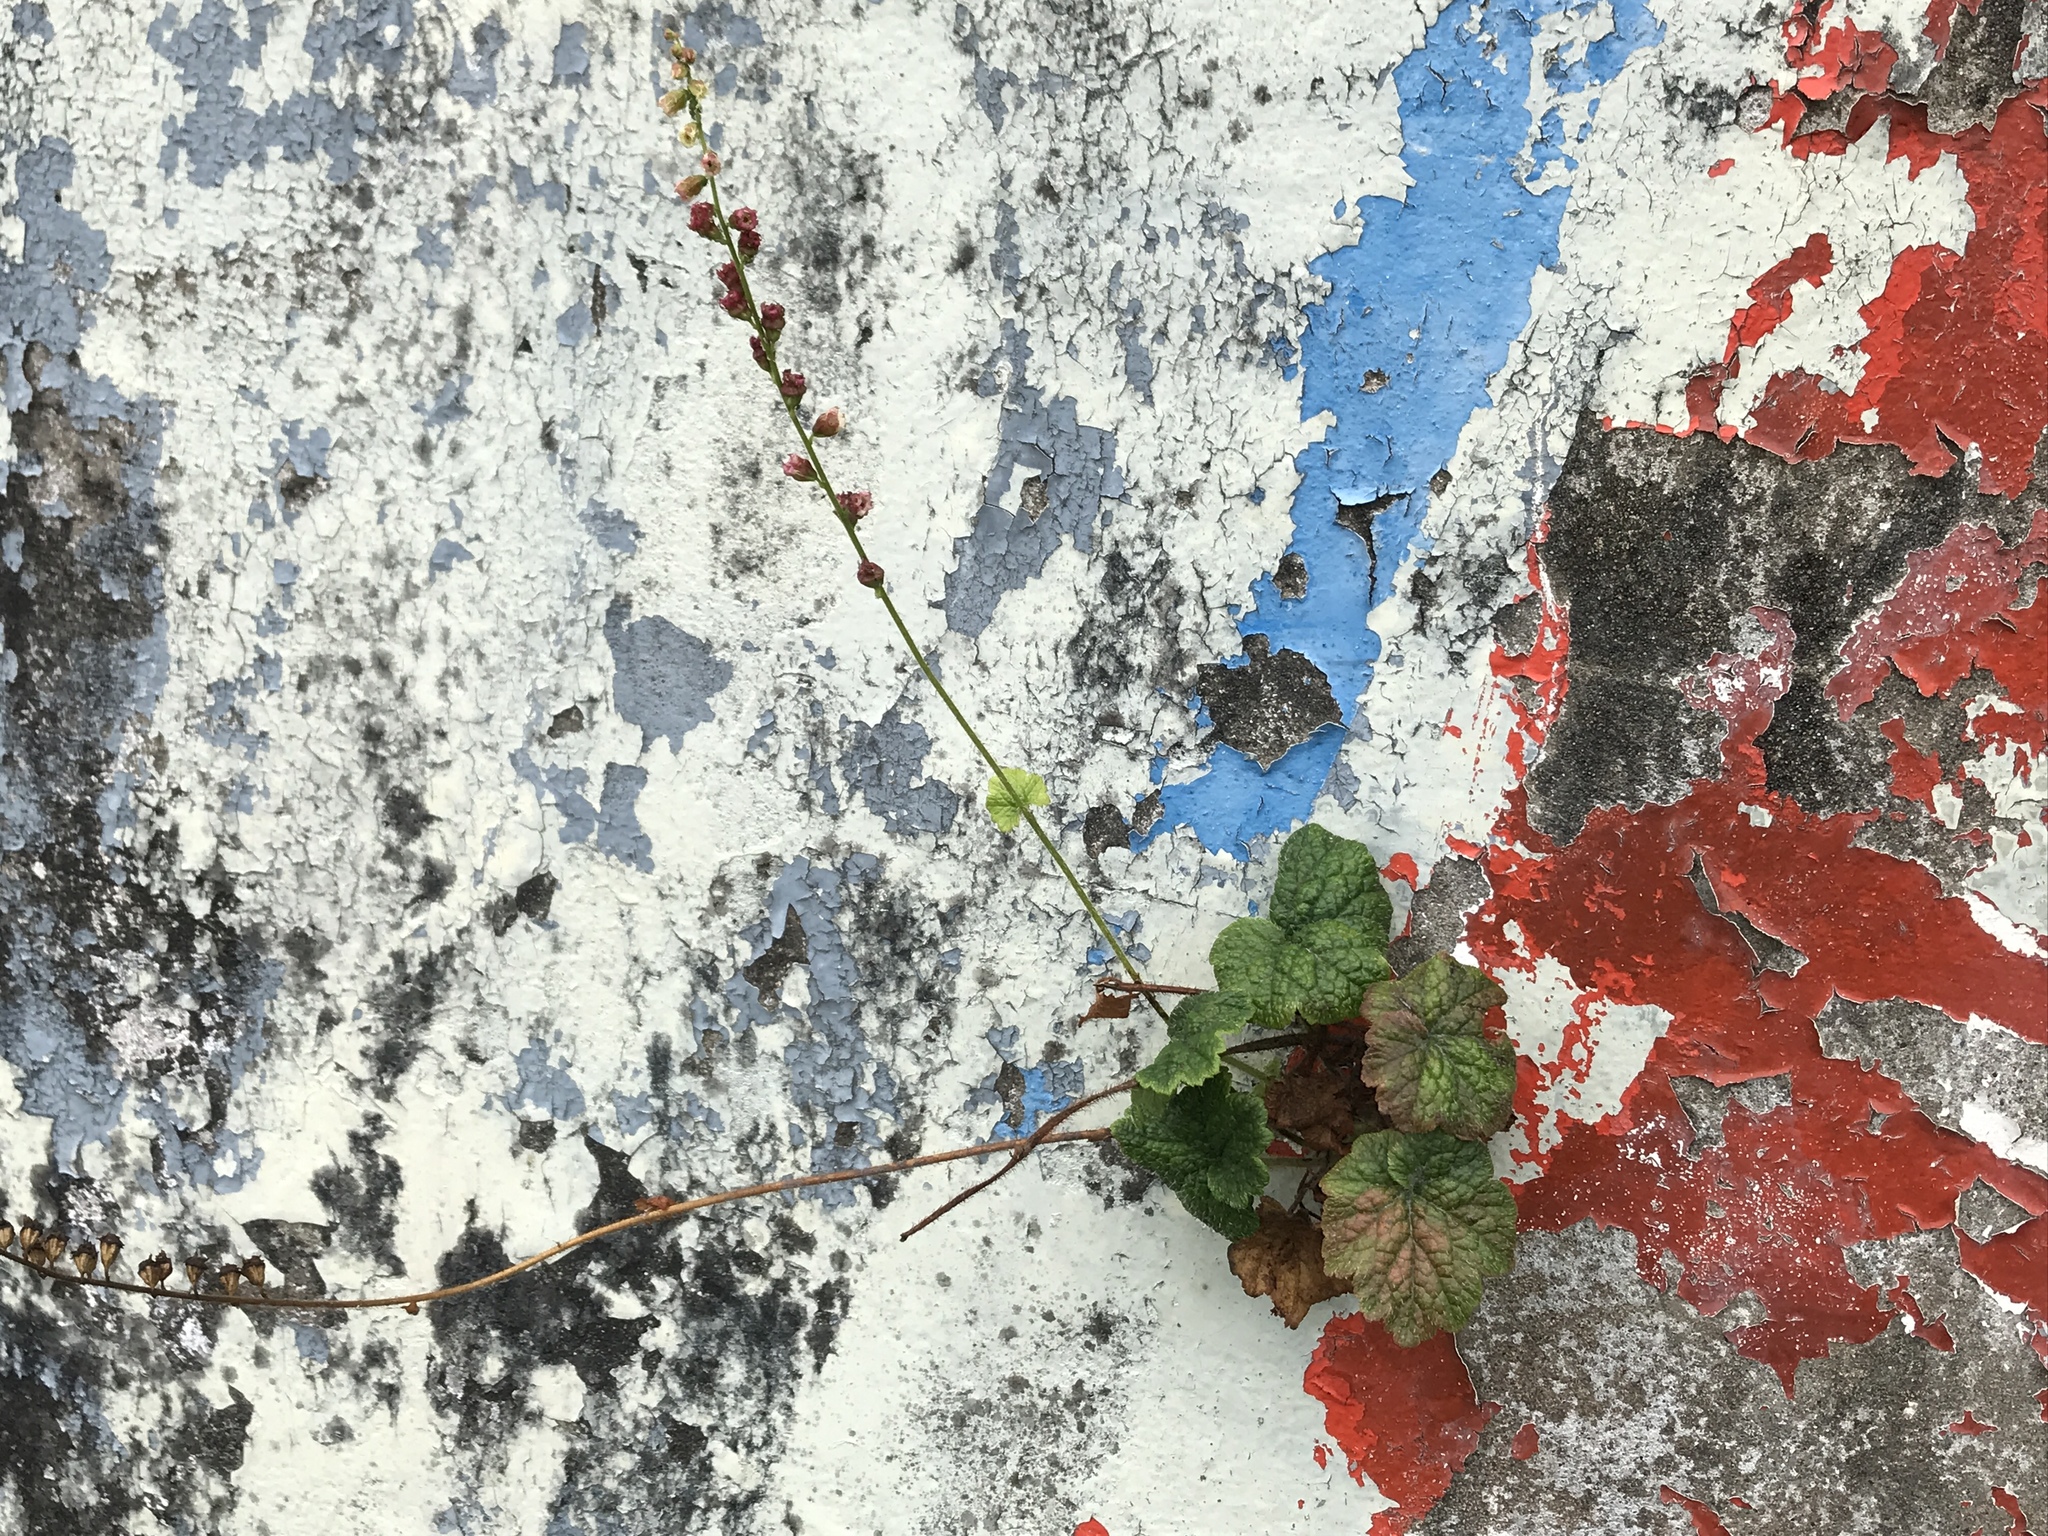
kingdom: Plantae
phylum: Tracheophyta
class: Magnoliopsida
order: Saxifragales
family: Saxifragaceae
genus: Tellima
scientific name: Tellima grandiflora
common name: Fringecups
